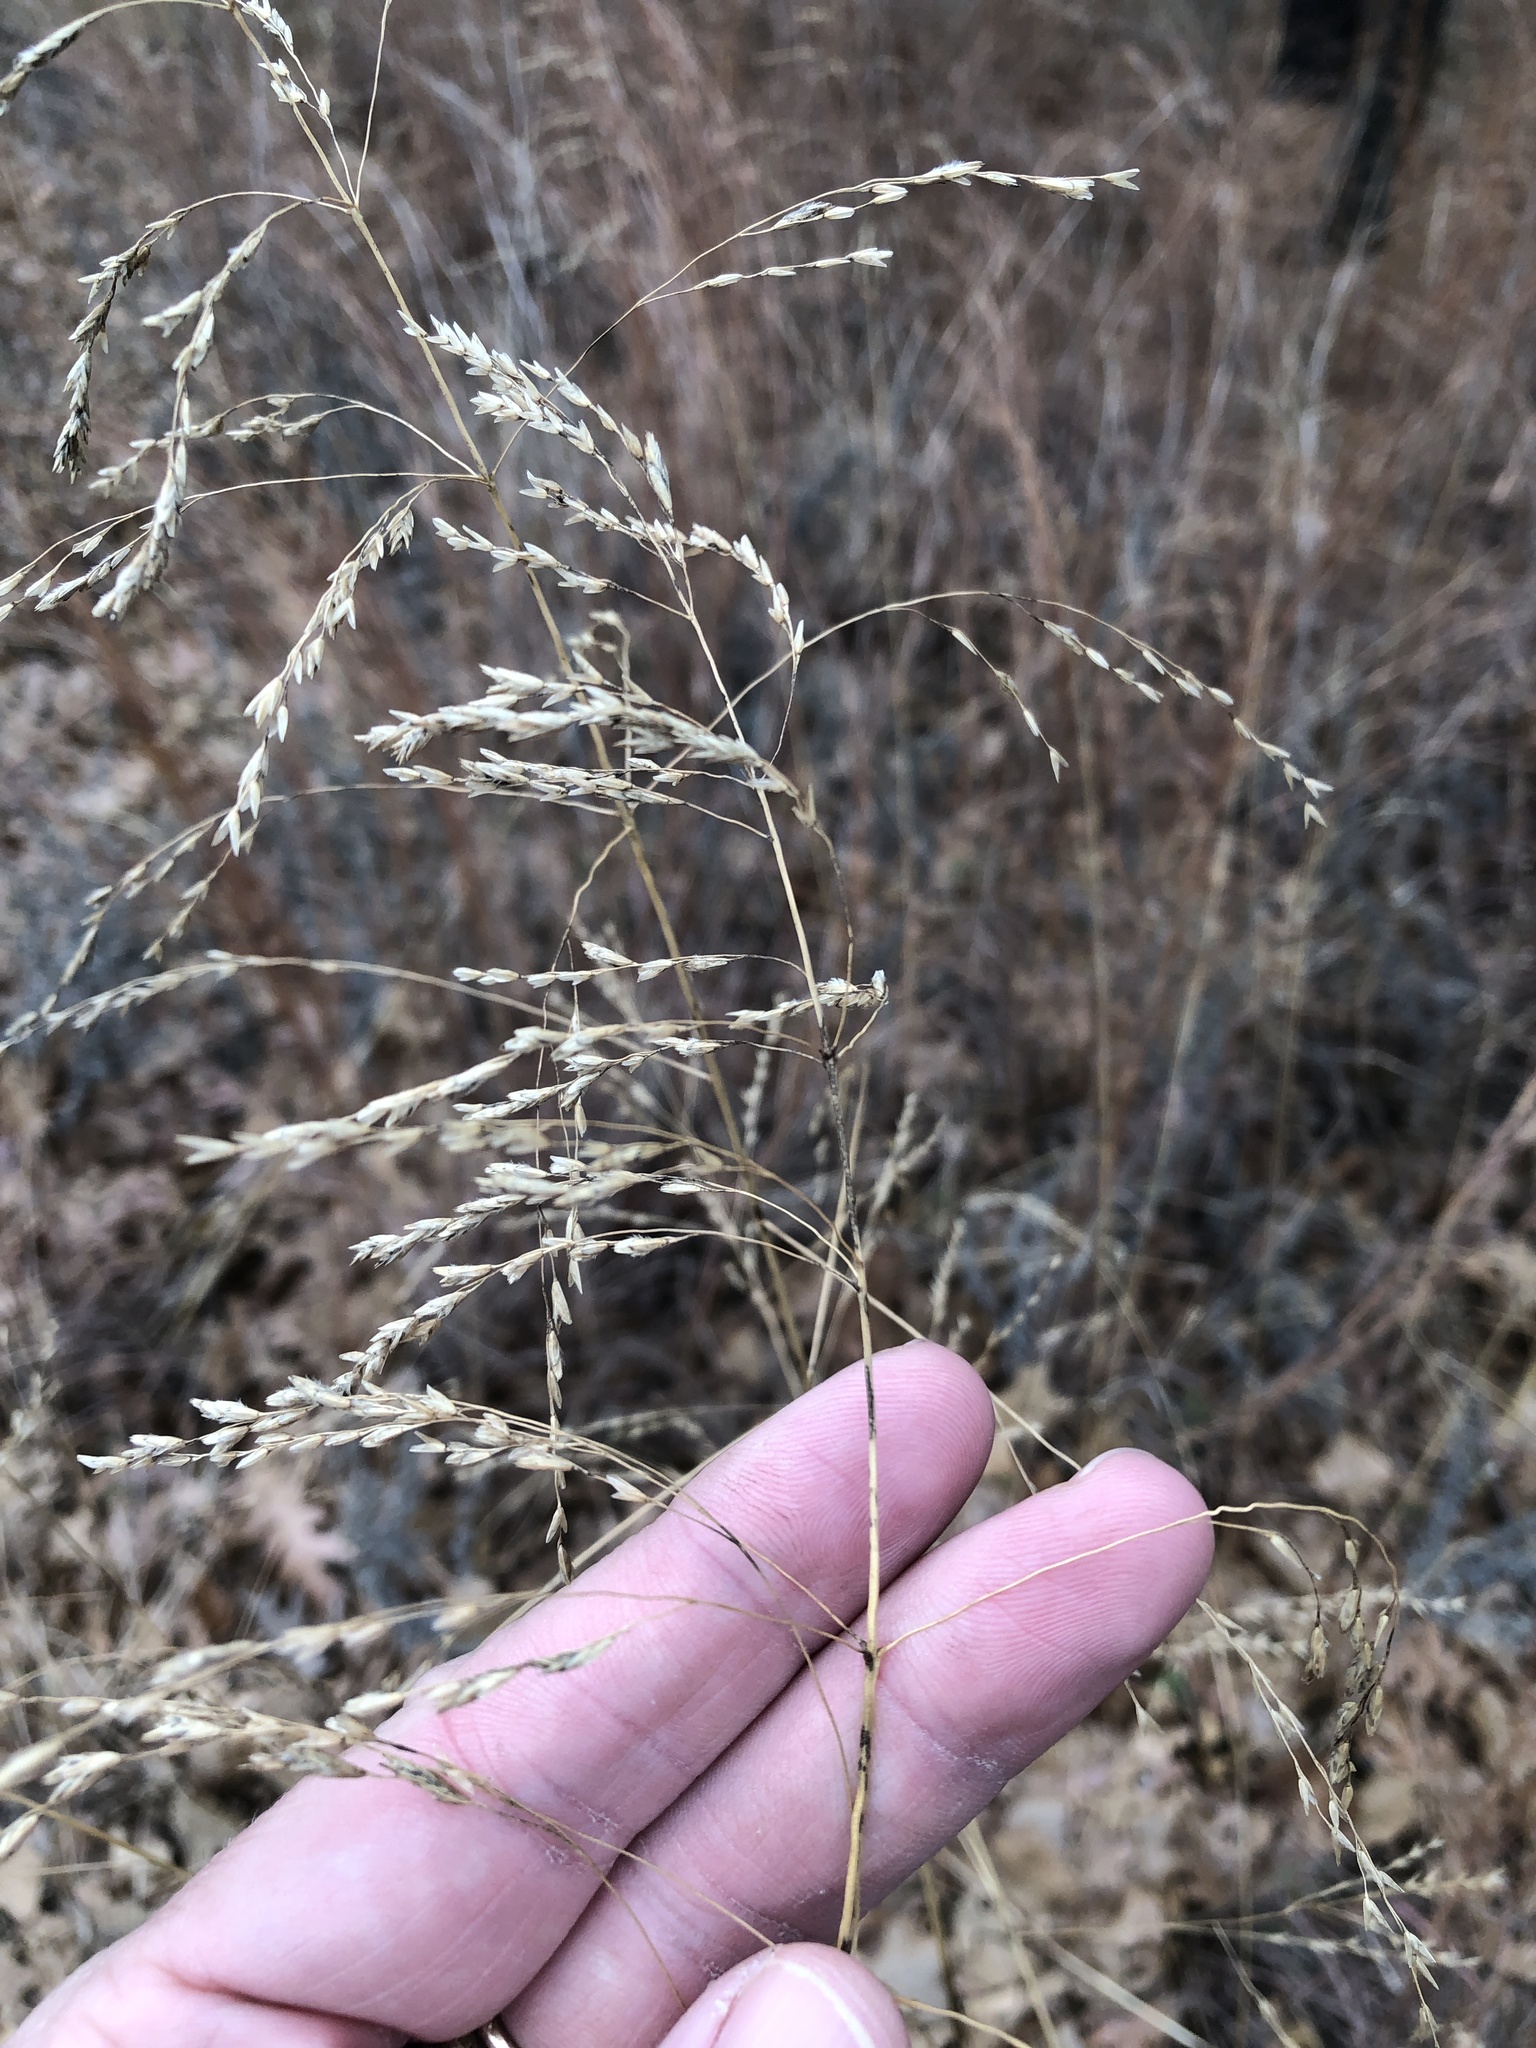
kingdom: Plantae
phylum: Tracheophyta
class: Liliopsida
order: Poales
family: Poaceae
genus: Tridens
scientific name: Tridens flavus
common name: Purpletop
